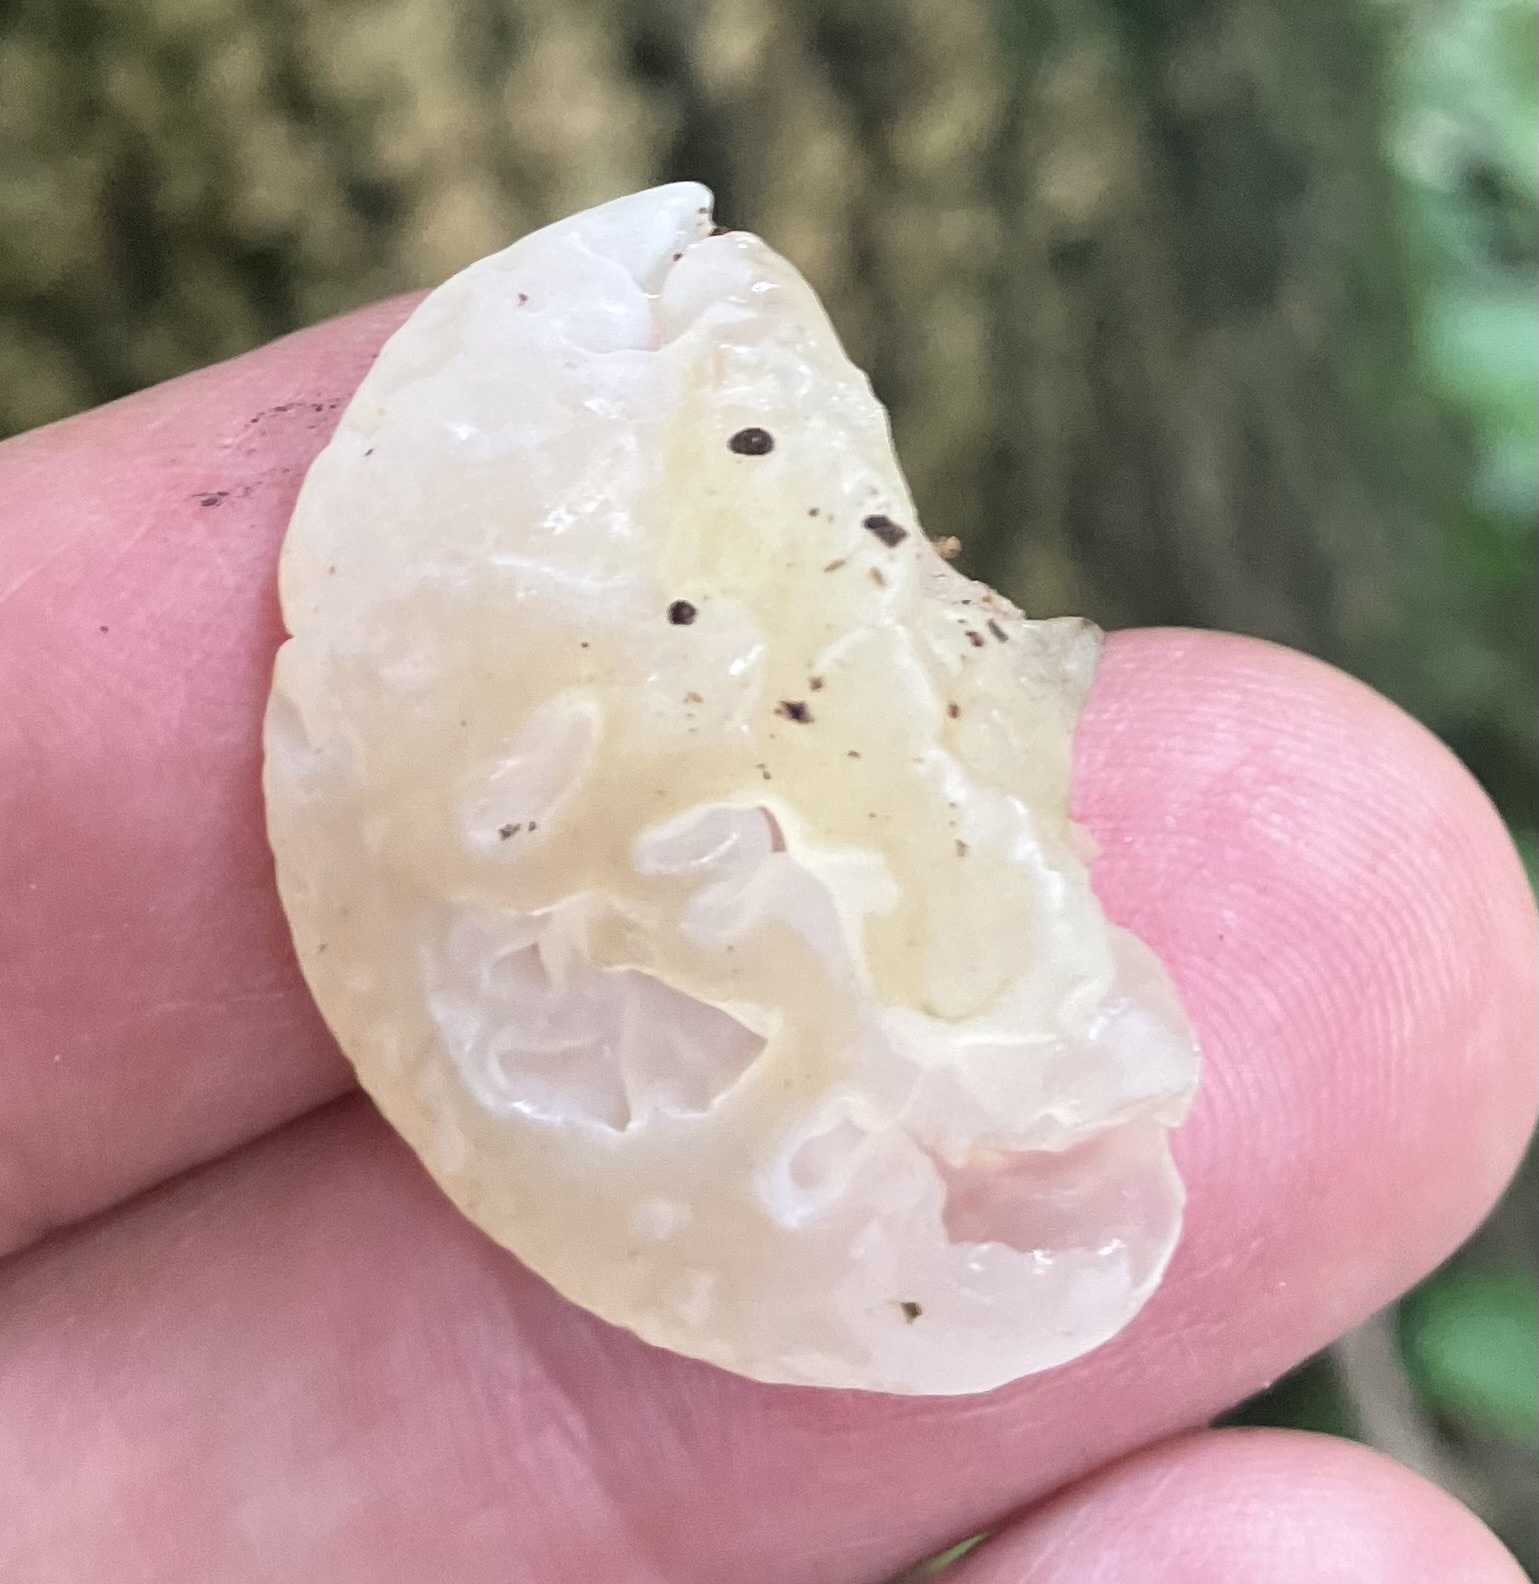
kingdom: Fungi
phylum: Basidiomycota
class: Agaricomycetes
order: Auriculariales
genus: Ductifera
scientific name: Ductifera pululahuana
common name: White jelly fungus
